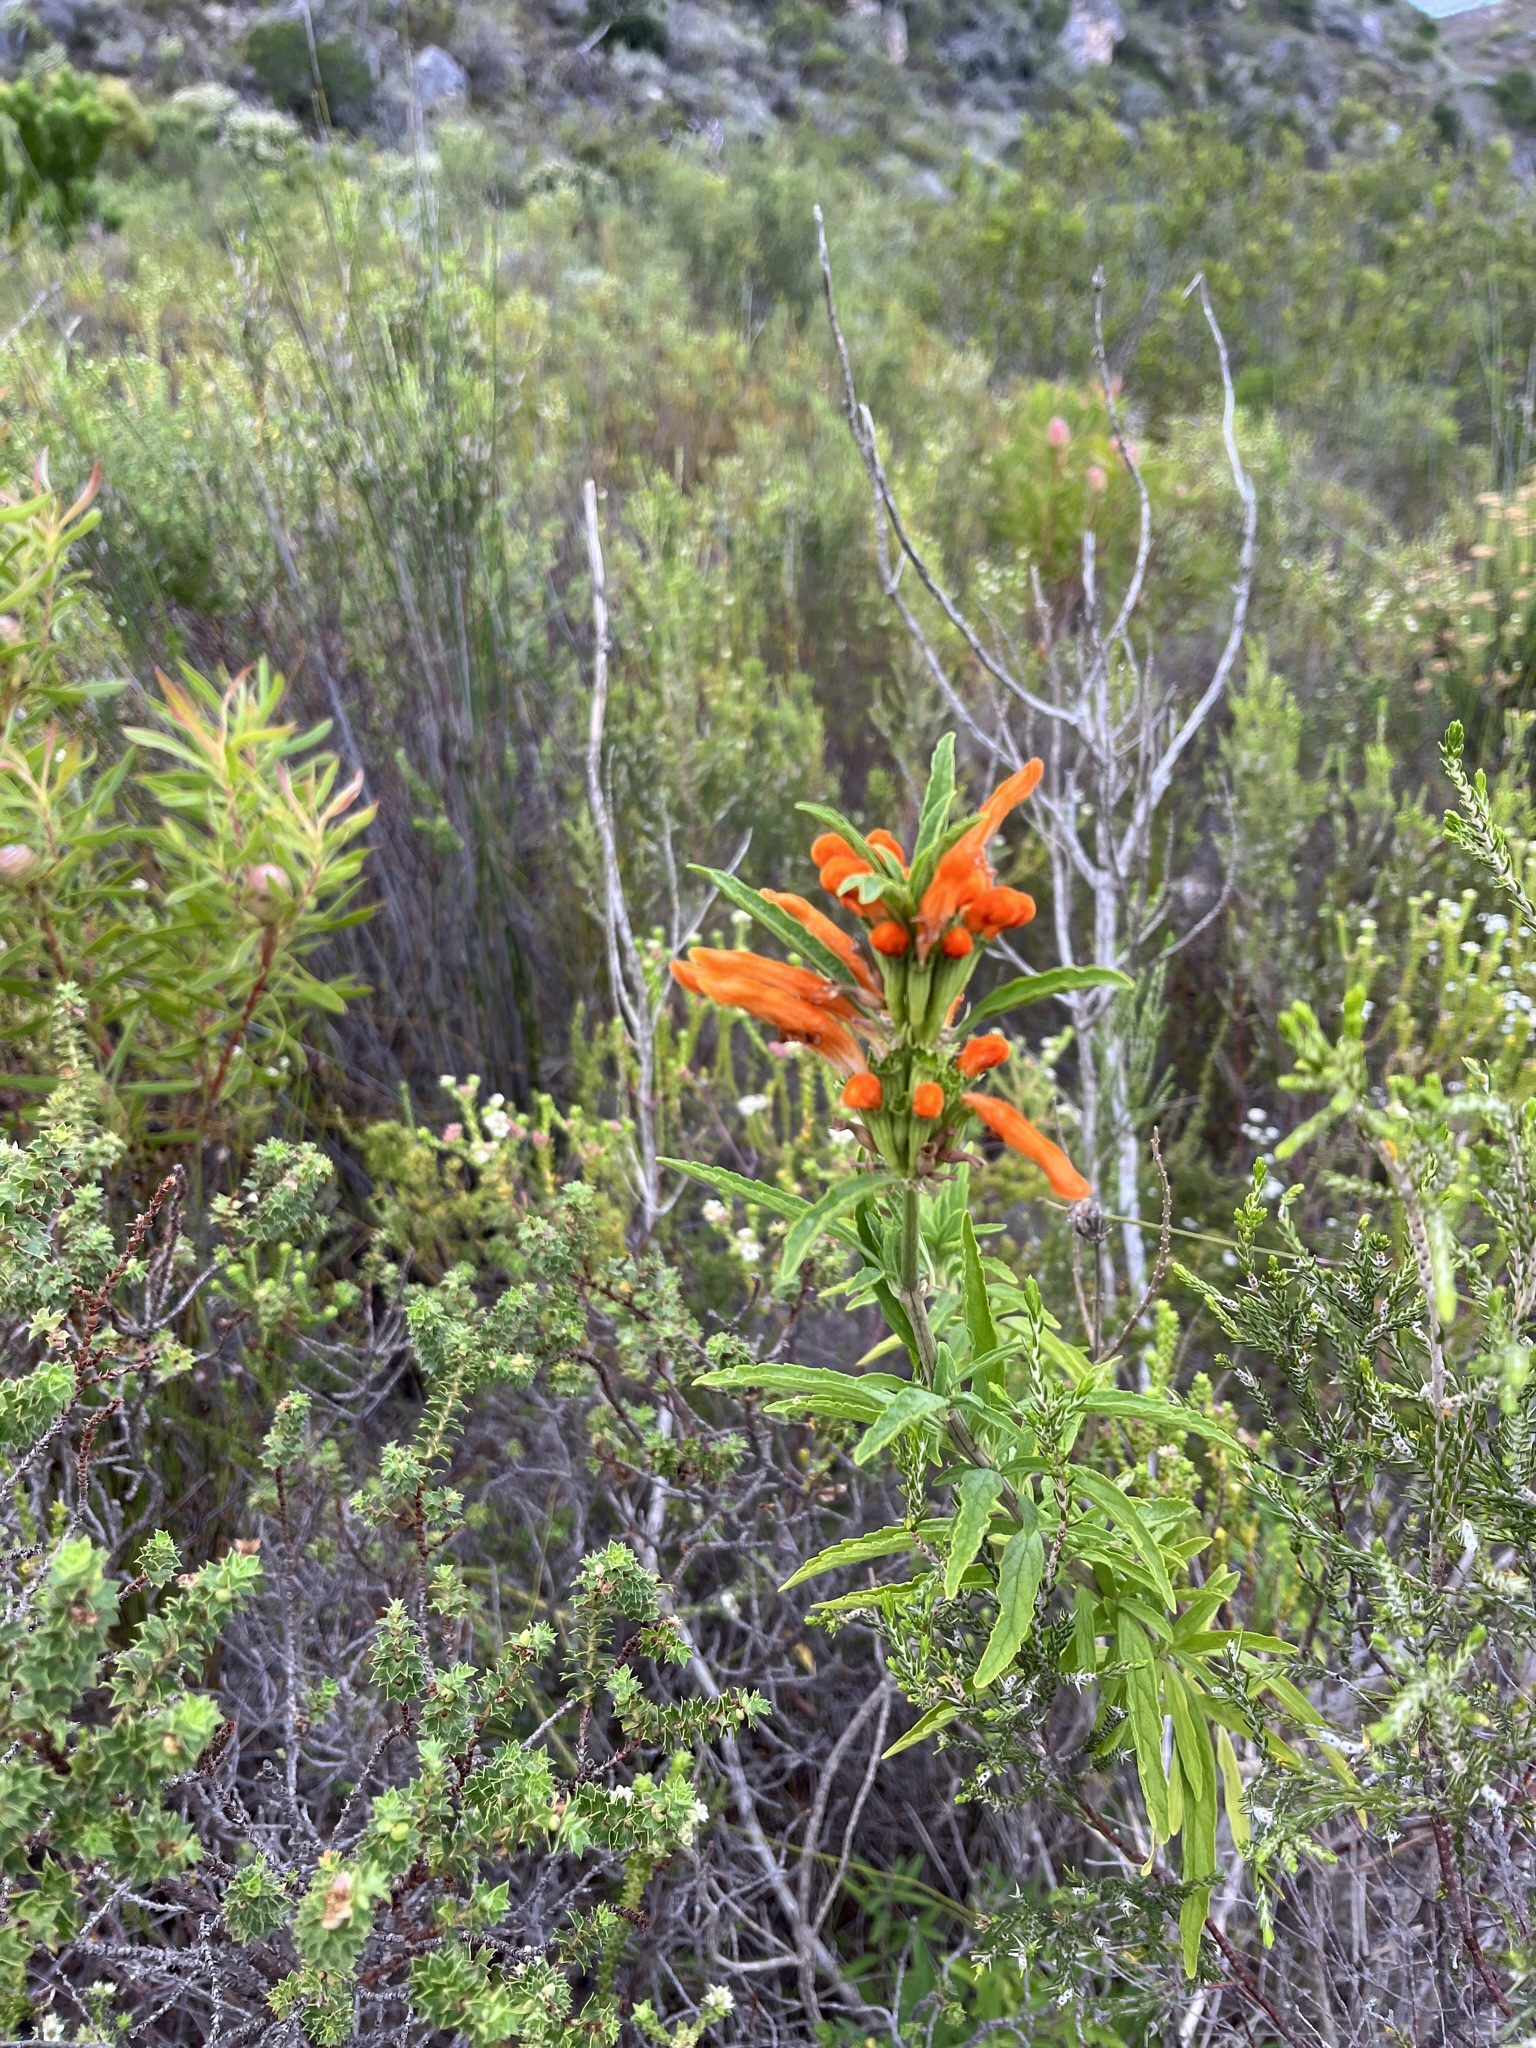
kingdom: Plantae
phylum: Tracheophyta
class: Magnoliopsida
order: Lamiales
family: Lamiaceae
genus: Leonotis
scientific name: Leonotis leonurus
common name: Lion's ear
